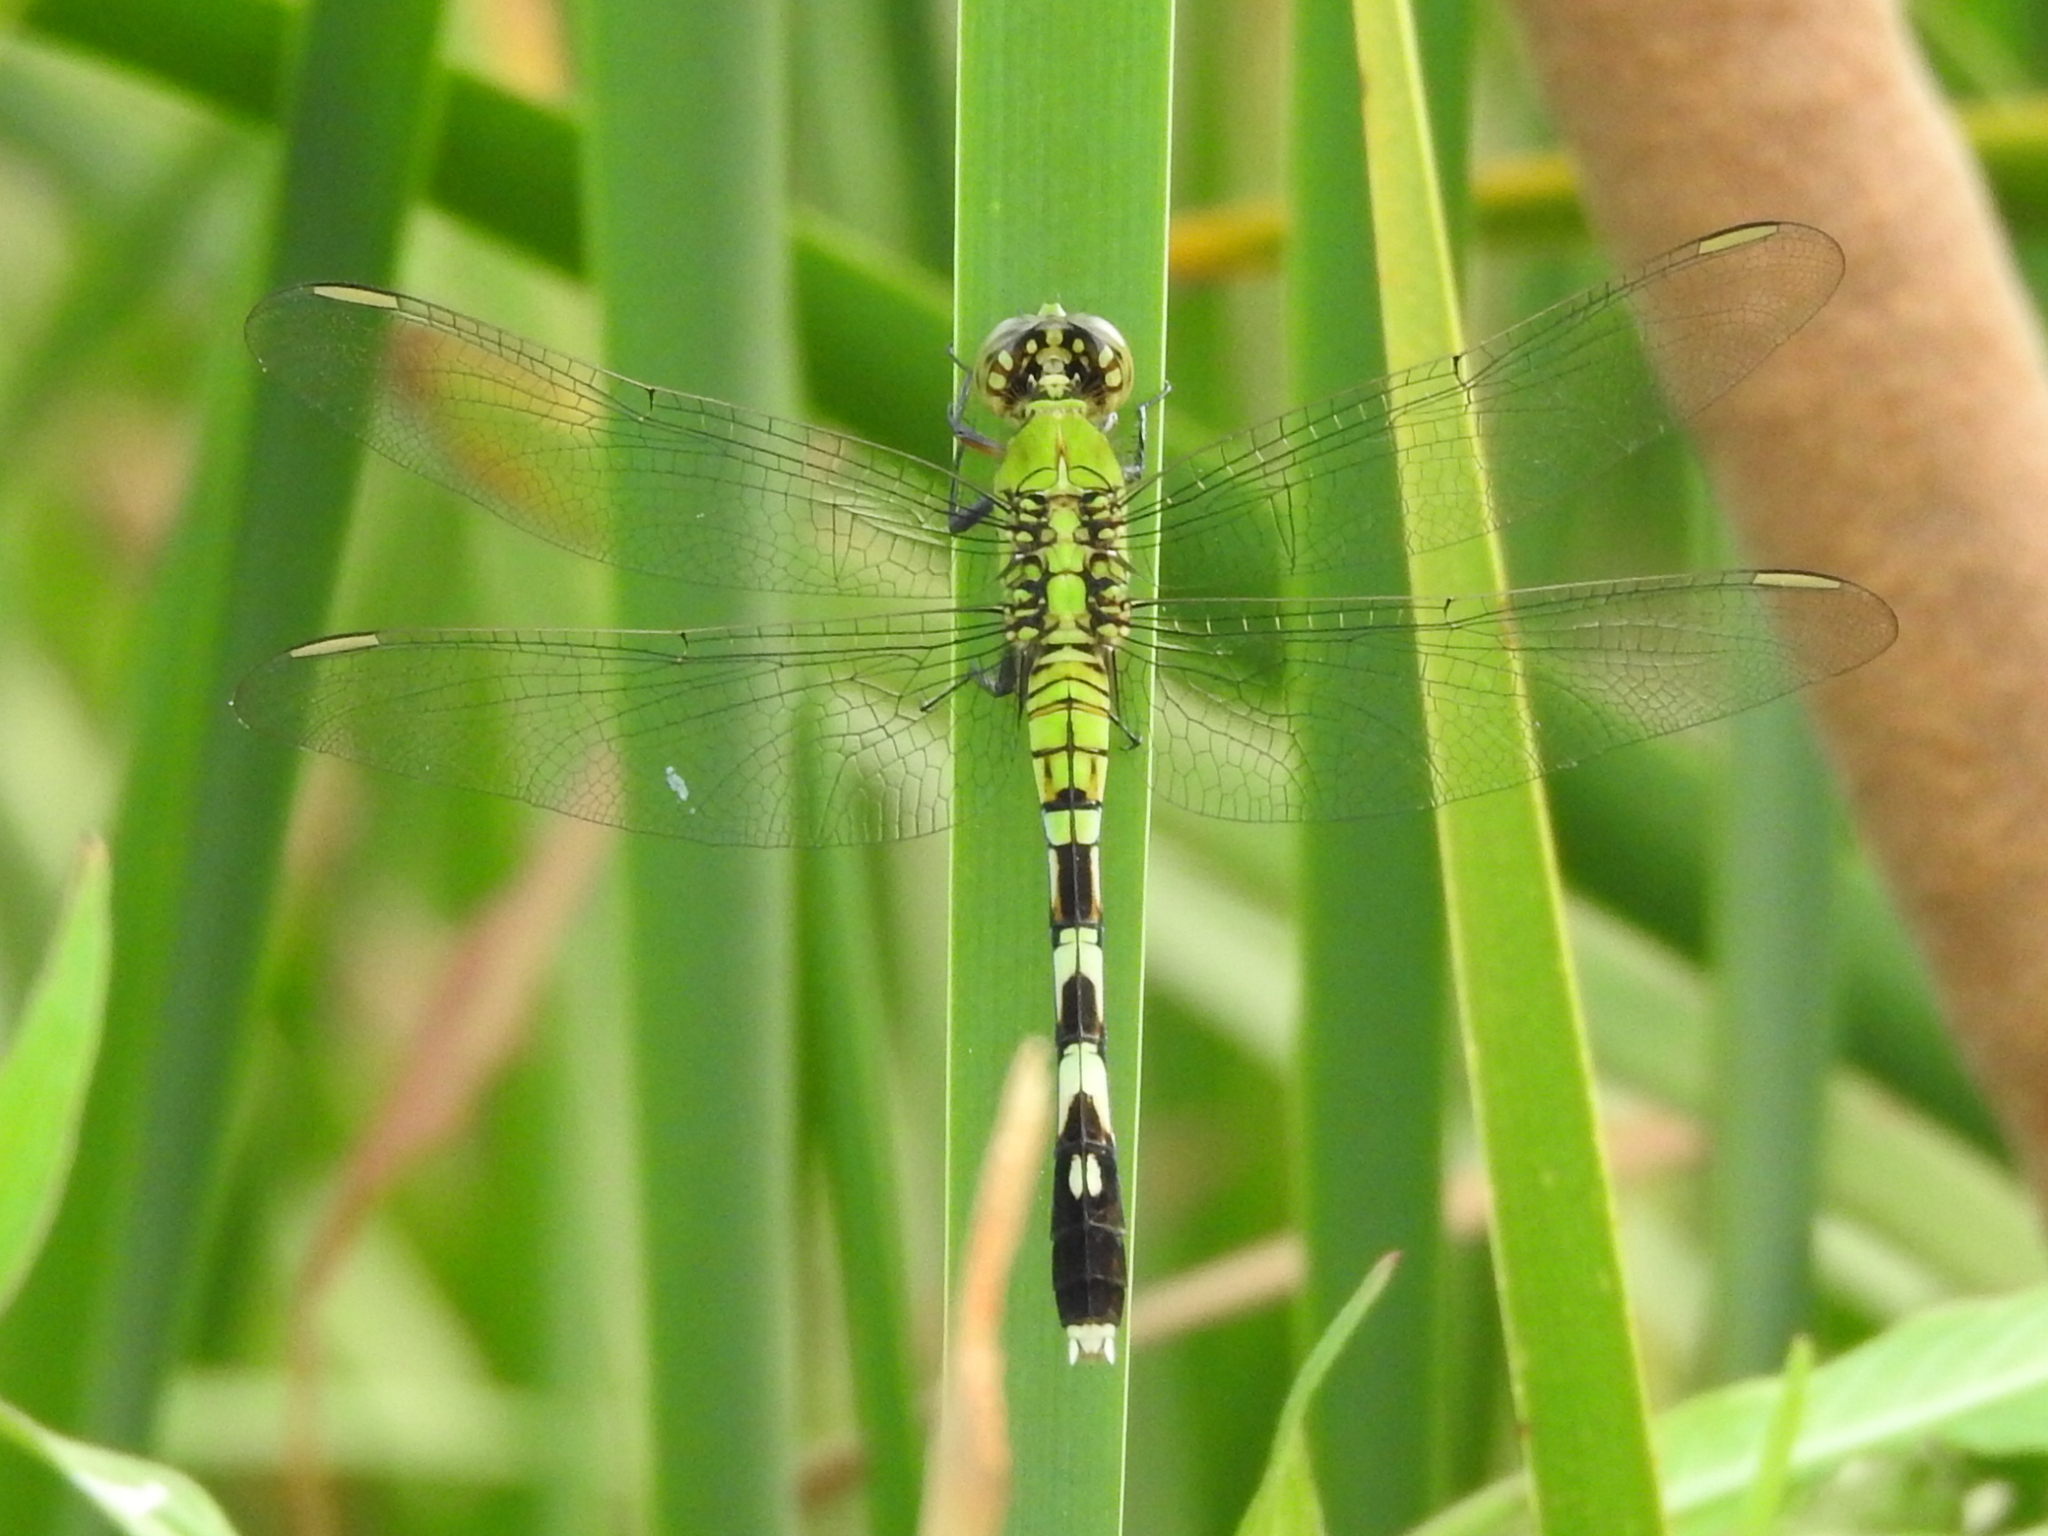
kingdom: Animalia
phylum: Arthropoda
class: Insecta
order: Odonata
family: Libellulidae
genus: Erythemis
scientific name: Erythemis simplicicollis
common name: Eastern pondhawk
